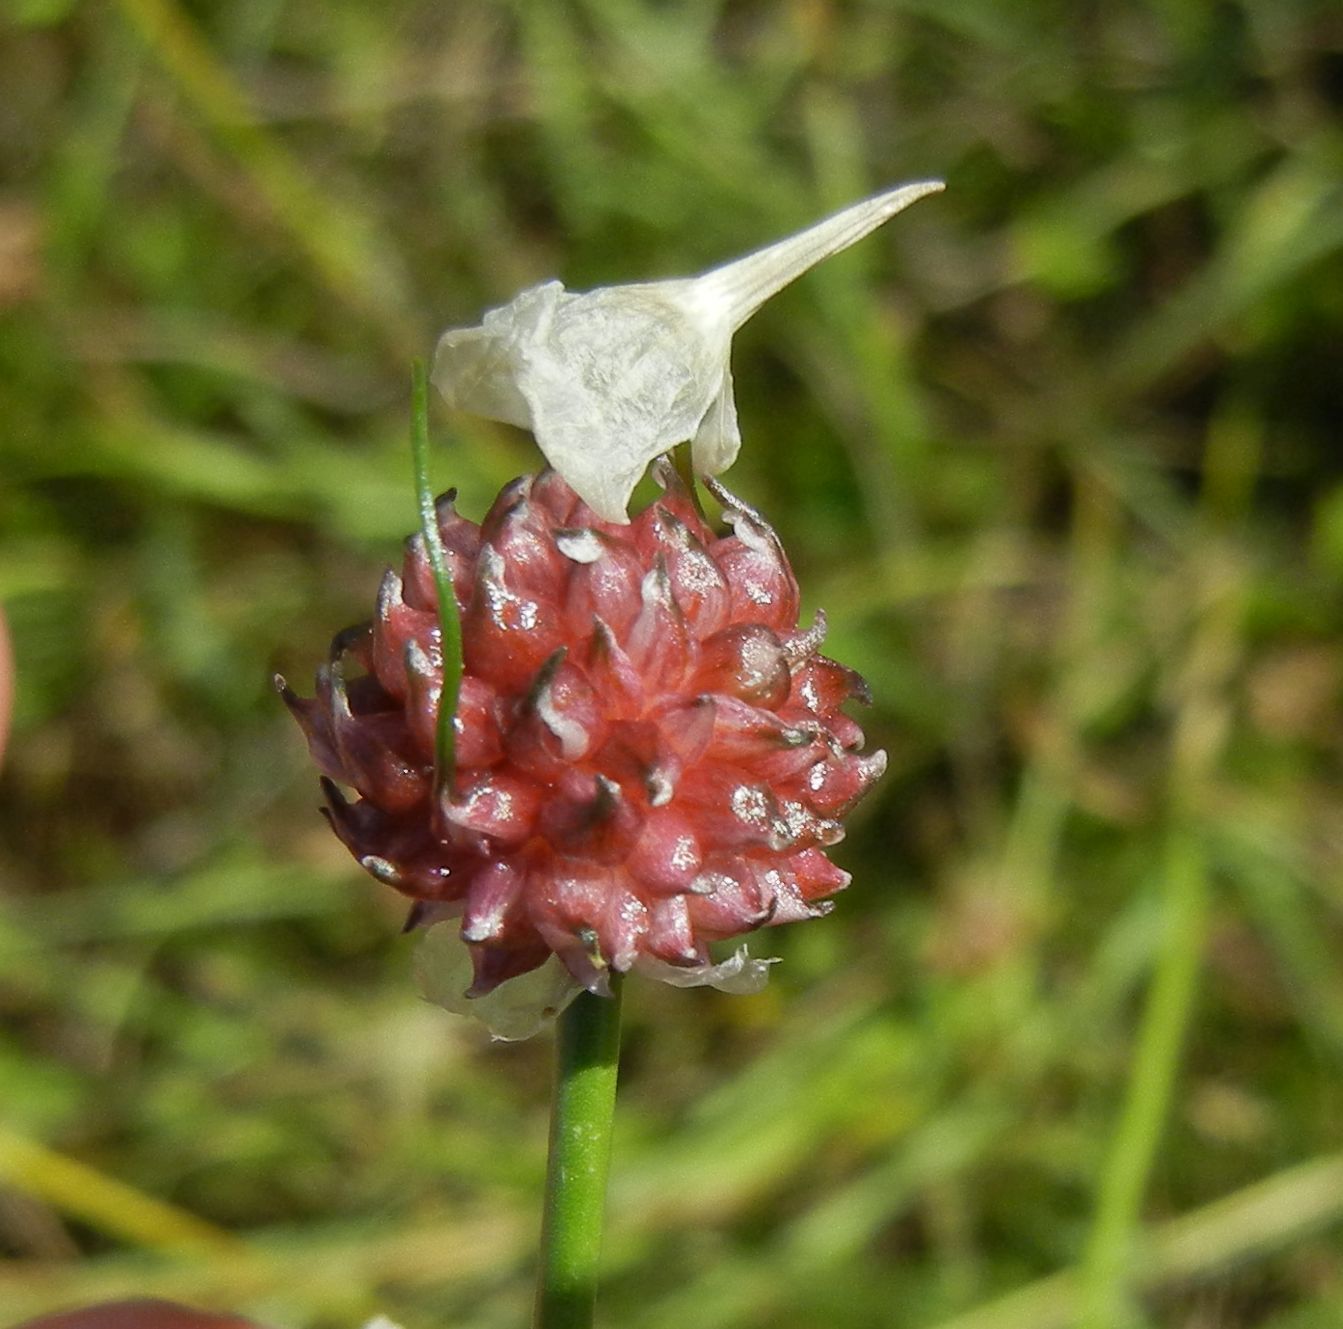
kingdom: Plantae
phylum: Tracheophyta
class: Liliopsida
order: Asparagales
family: Amaryllidaceae
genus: Allium
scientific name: Allium vineale
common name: Crow garlic
